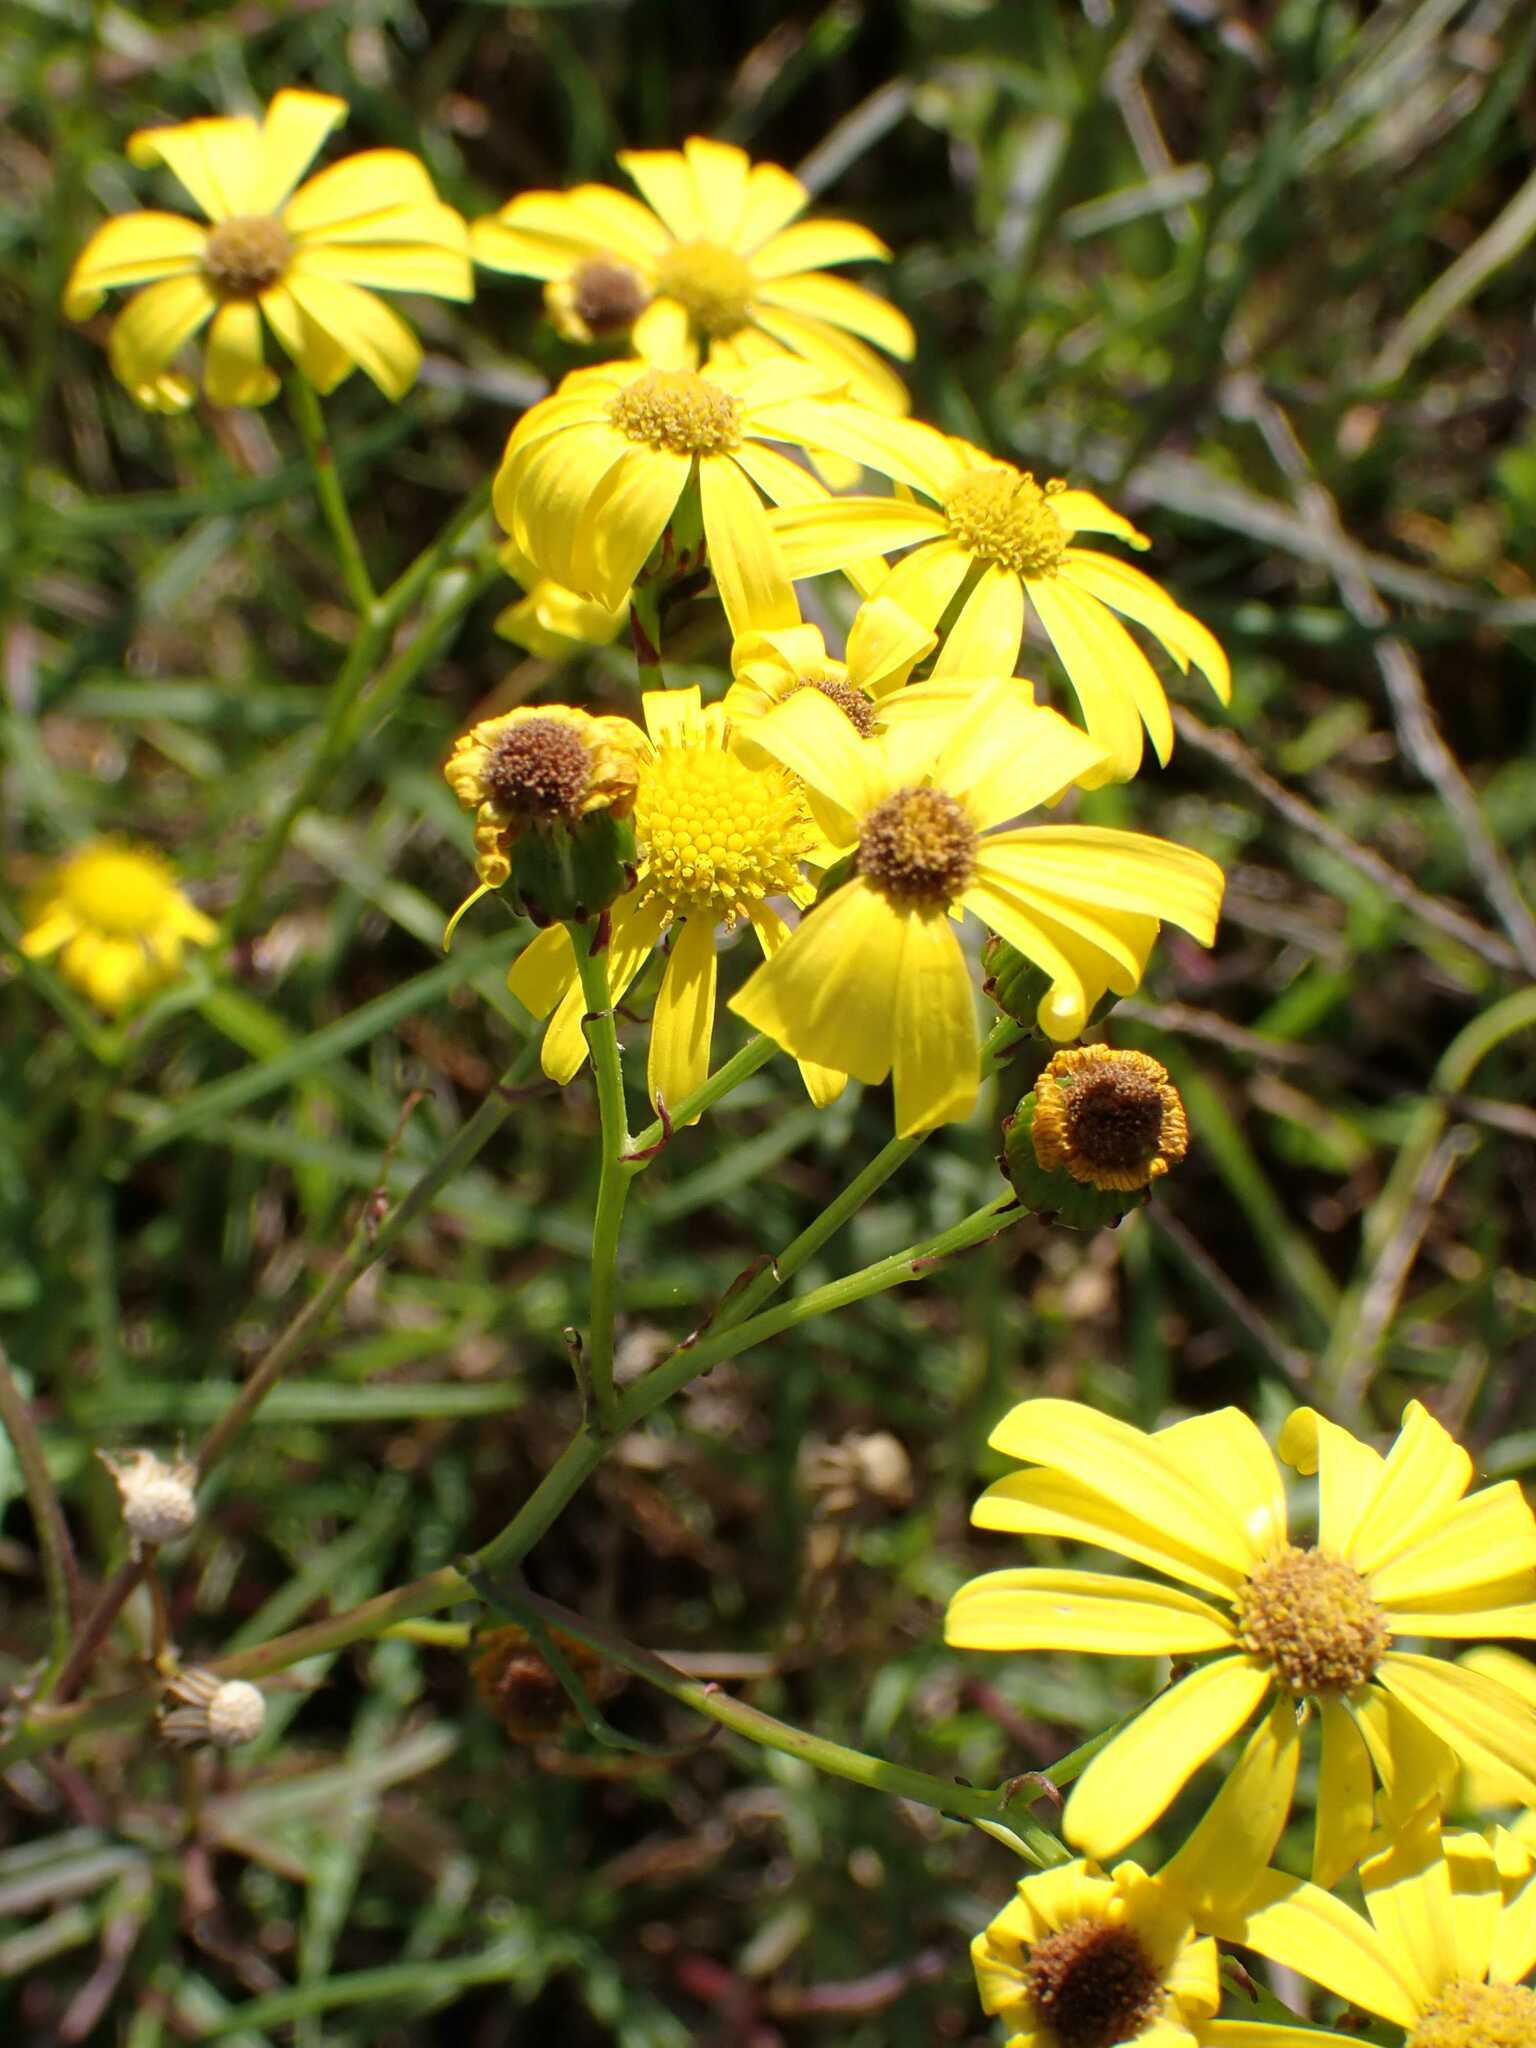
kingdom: Plantae
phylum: Tracheophyta
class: Magnoliopsida
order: Asterales
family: Asteraceae
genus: Senecio
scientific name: Senecio inaequidens
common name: Narrow-leaved ragwort
